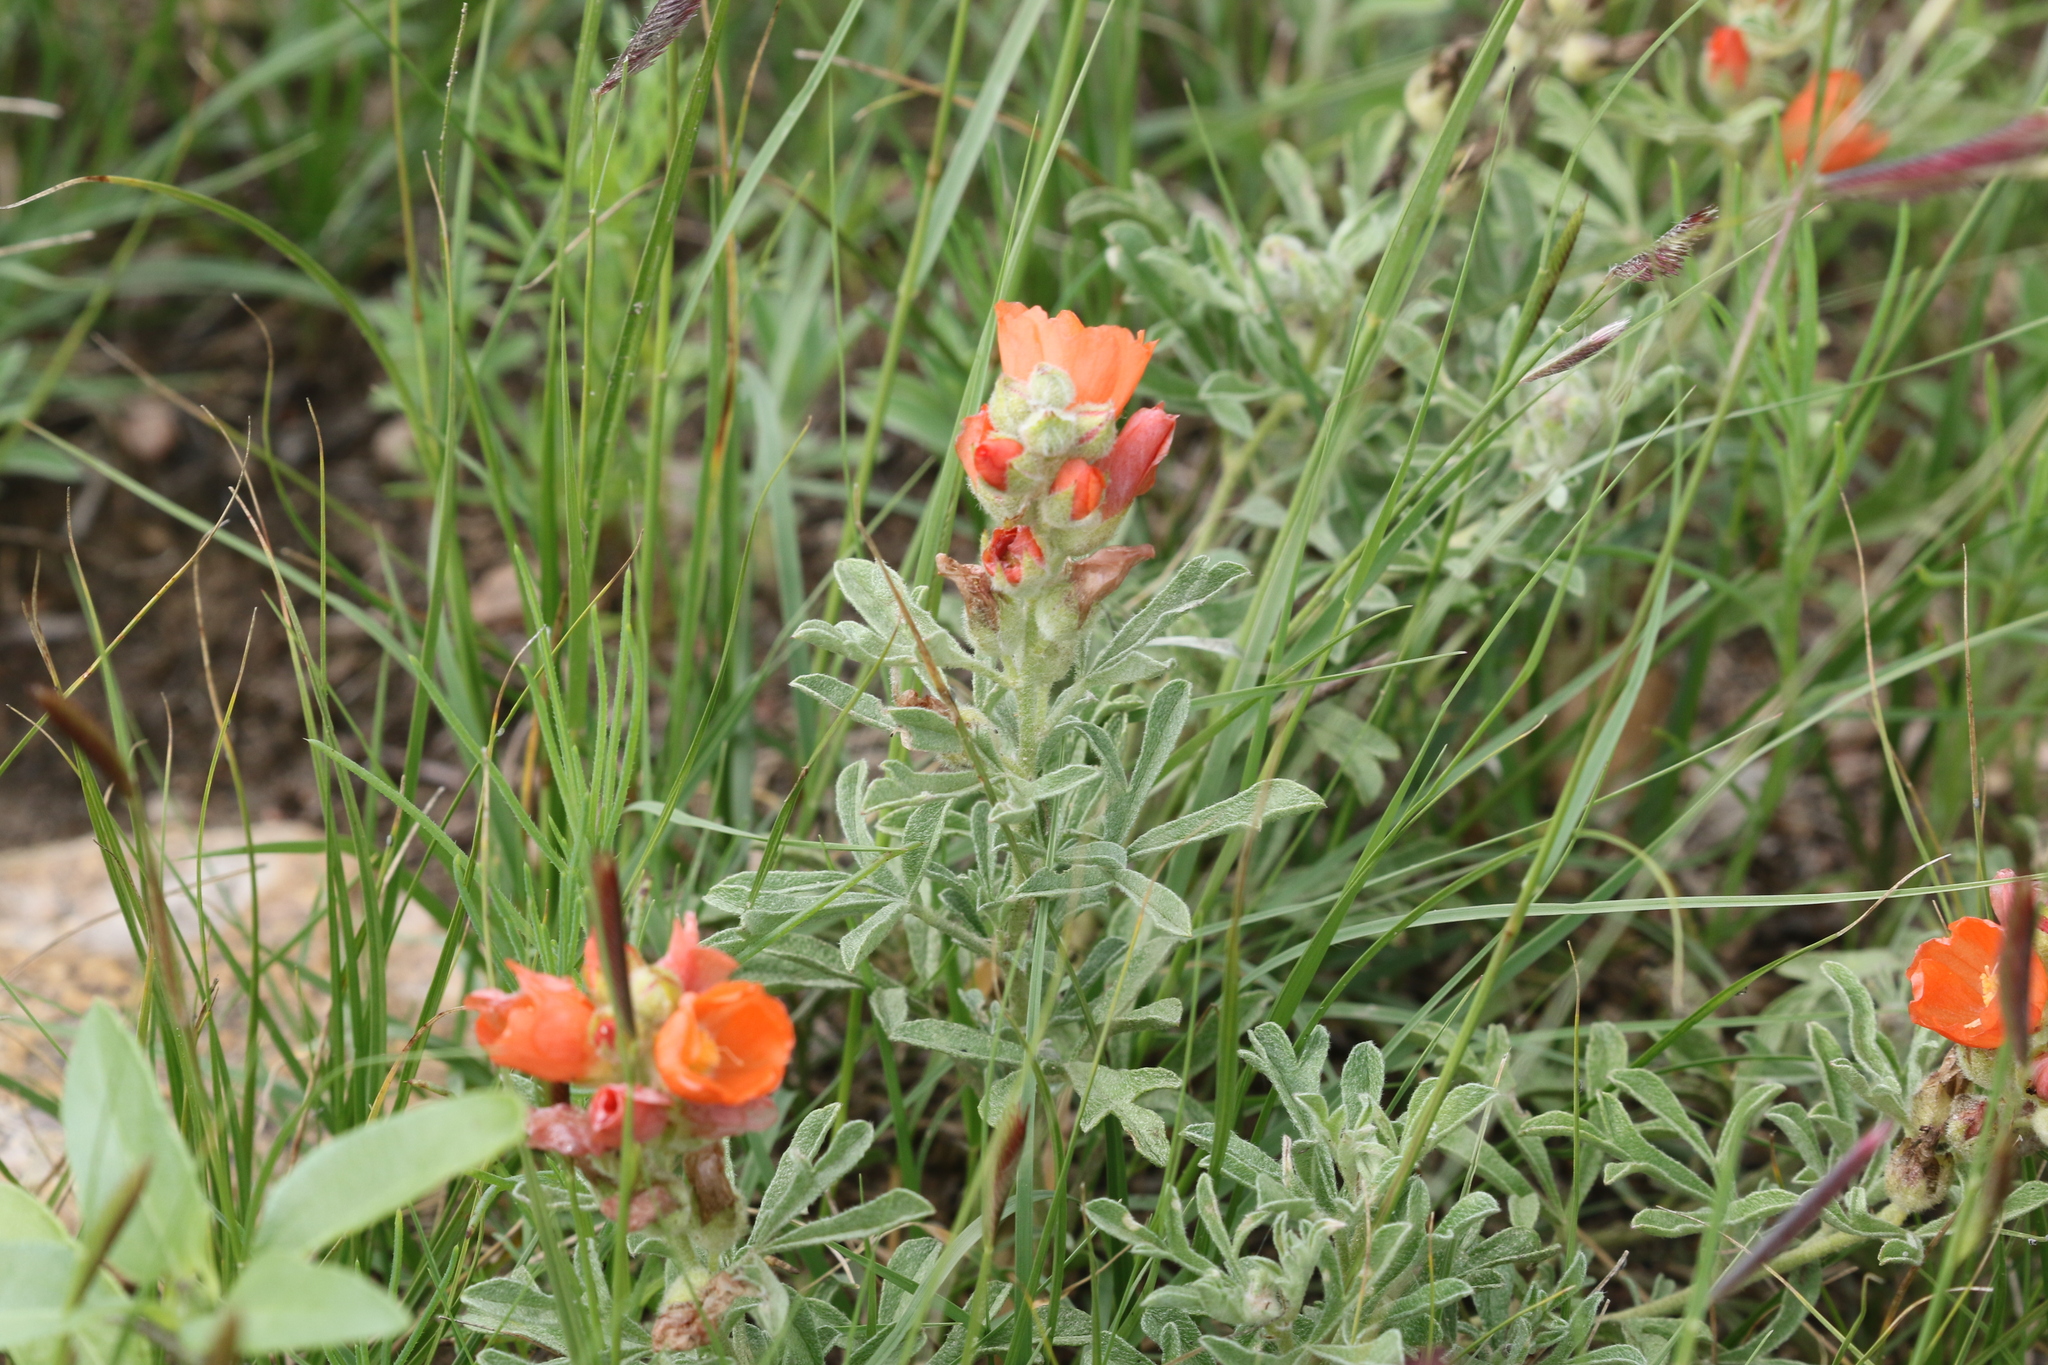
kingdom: Plantae
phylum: Tracheophyta
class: Magnoliopsida
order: Malvales
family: Malvaceae
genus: Sphaeralcea
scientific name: Sphaeralcea coccinea
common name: Moss-rose
